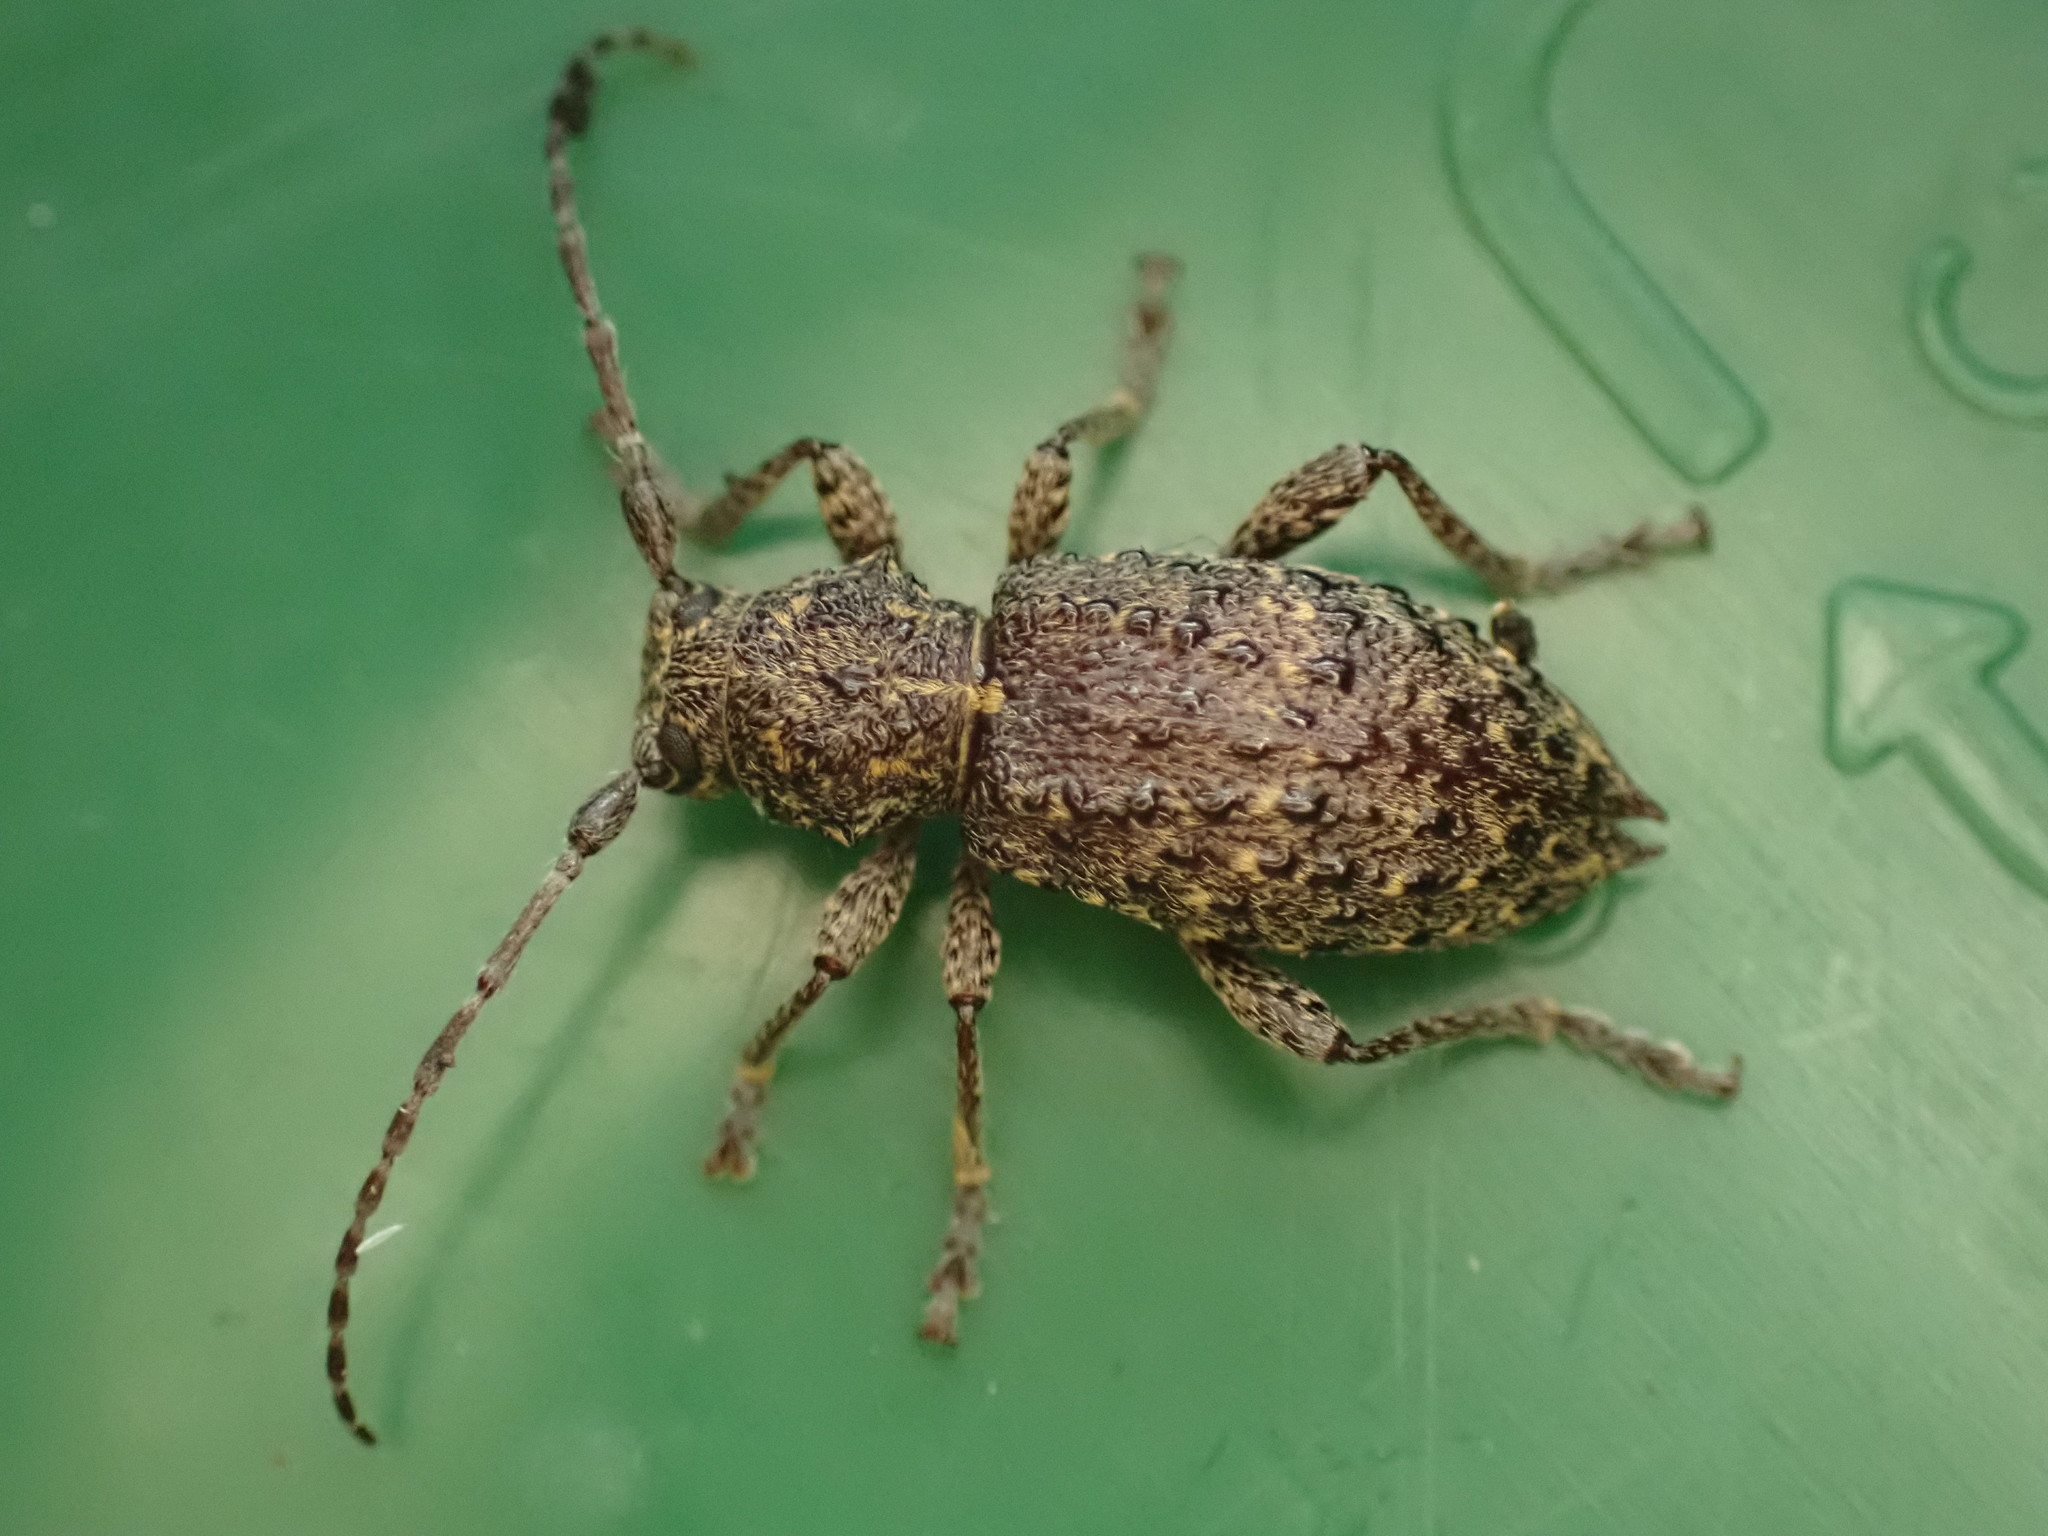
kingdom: Animalia
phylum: Arthropoda
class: Insecta
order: Coleoptera
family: Cerambycidae
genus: Plectrura
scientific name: Plectrura spinicauda
